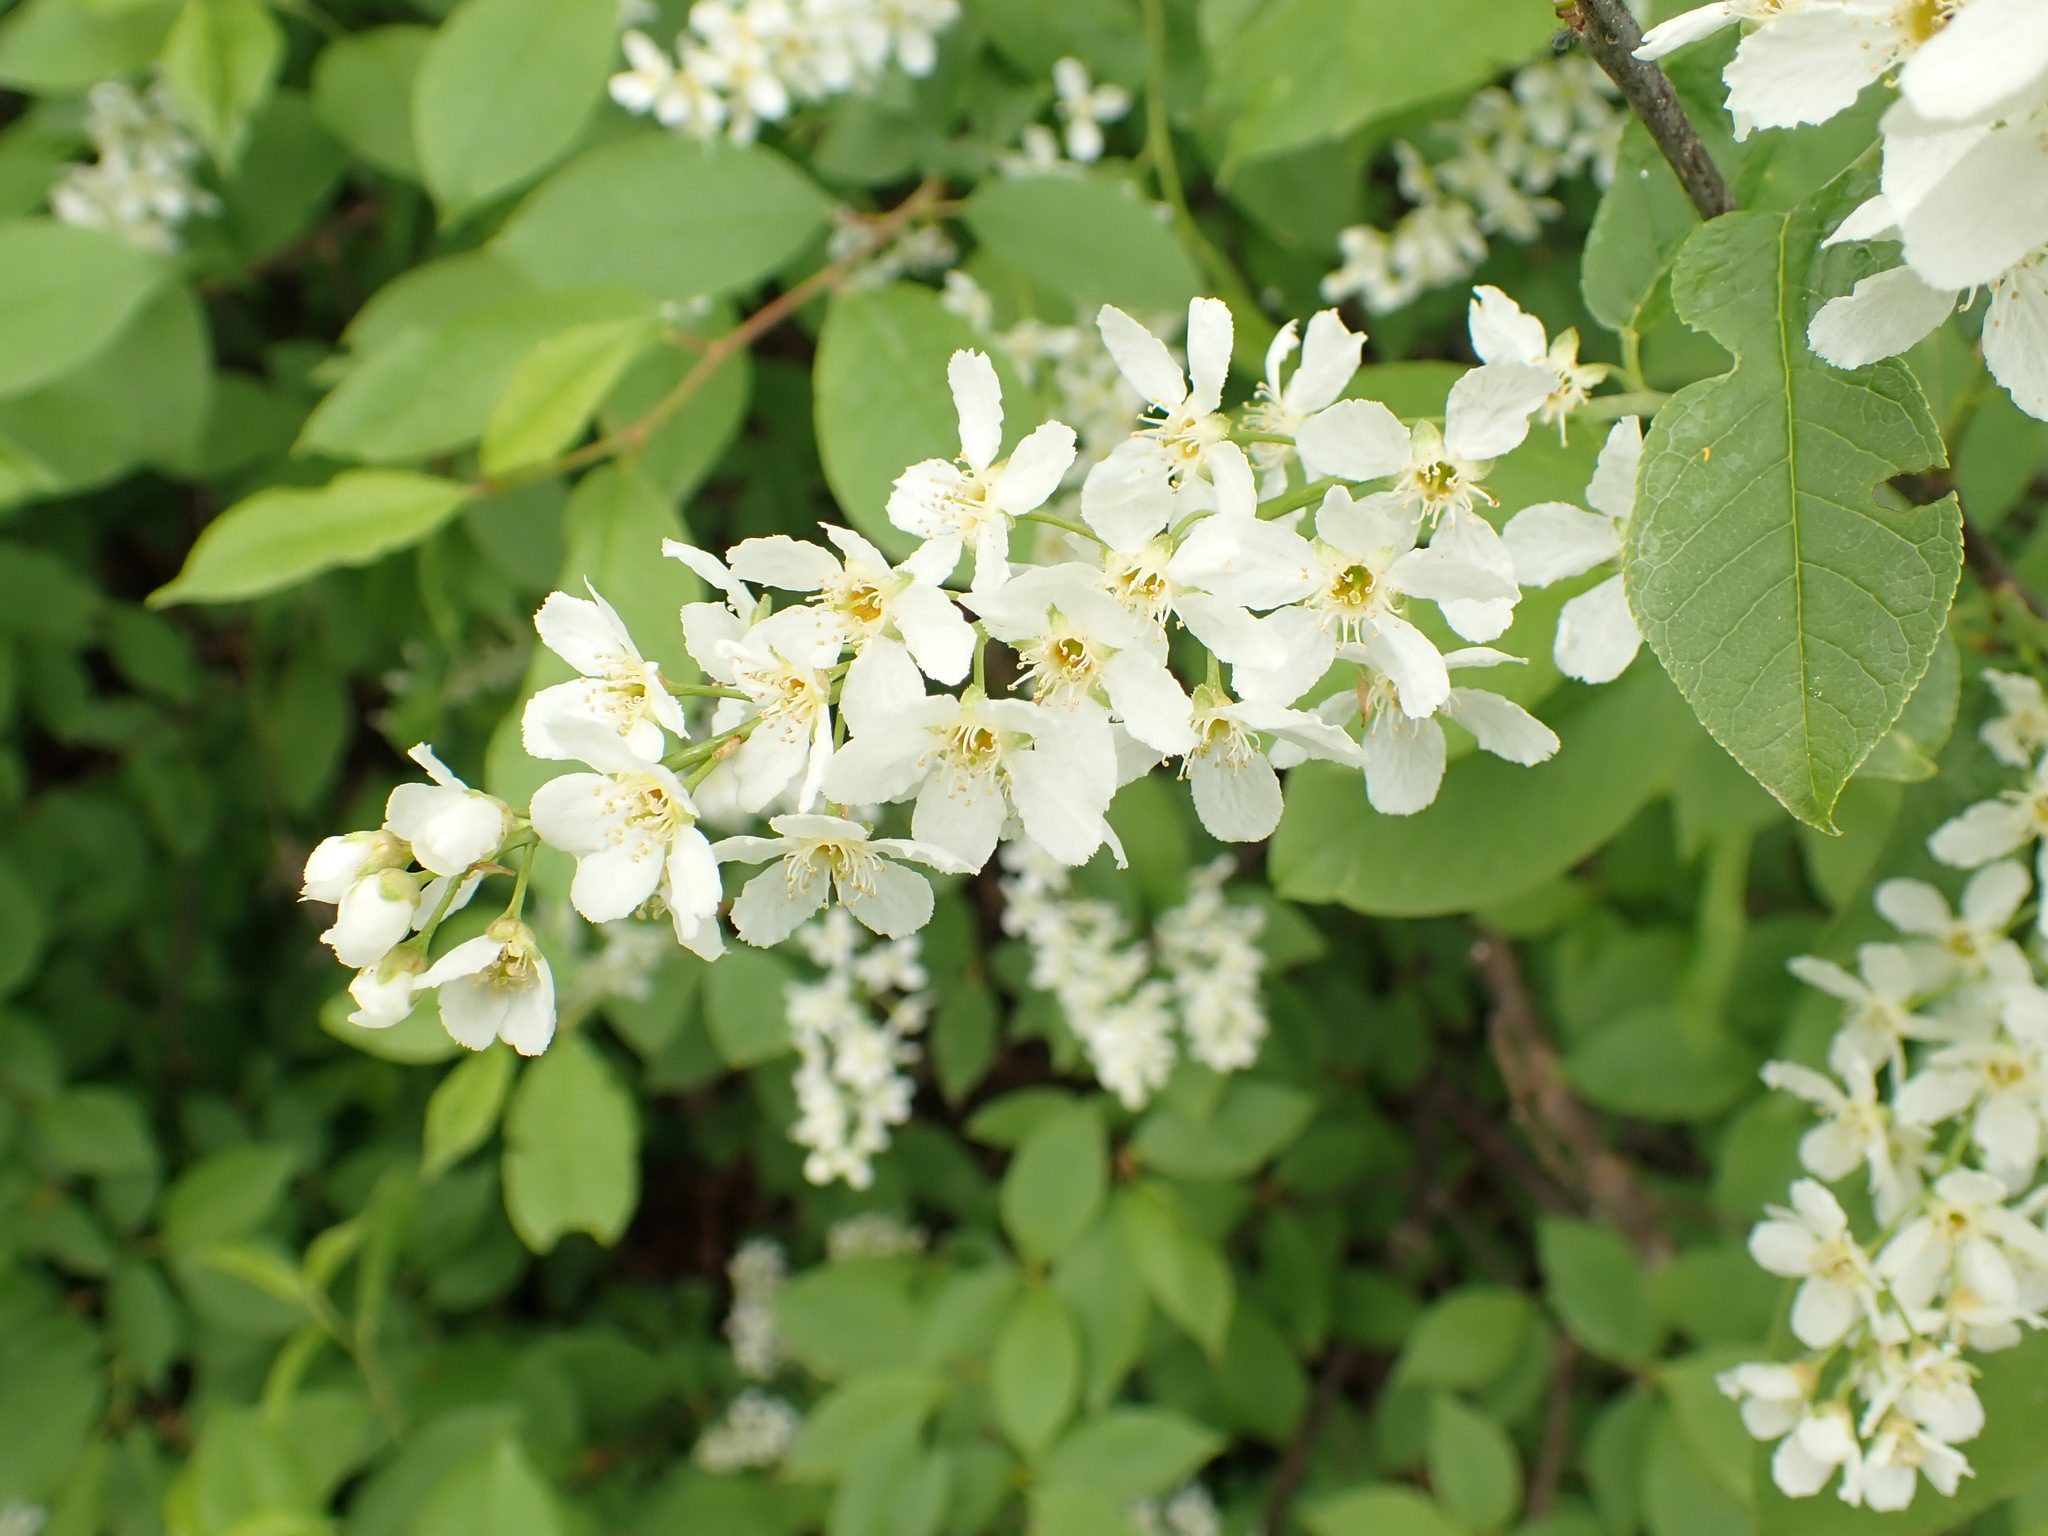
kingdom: Plantae
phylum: Tracheophyta
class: Magnoliopsida
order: Rosales
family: Rosaceae
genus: Prunus
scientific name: Prunus padus
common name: Bird cherry
